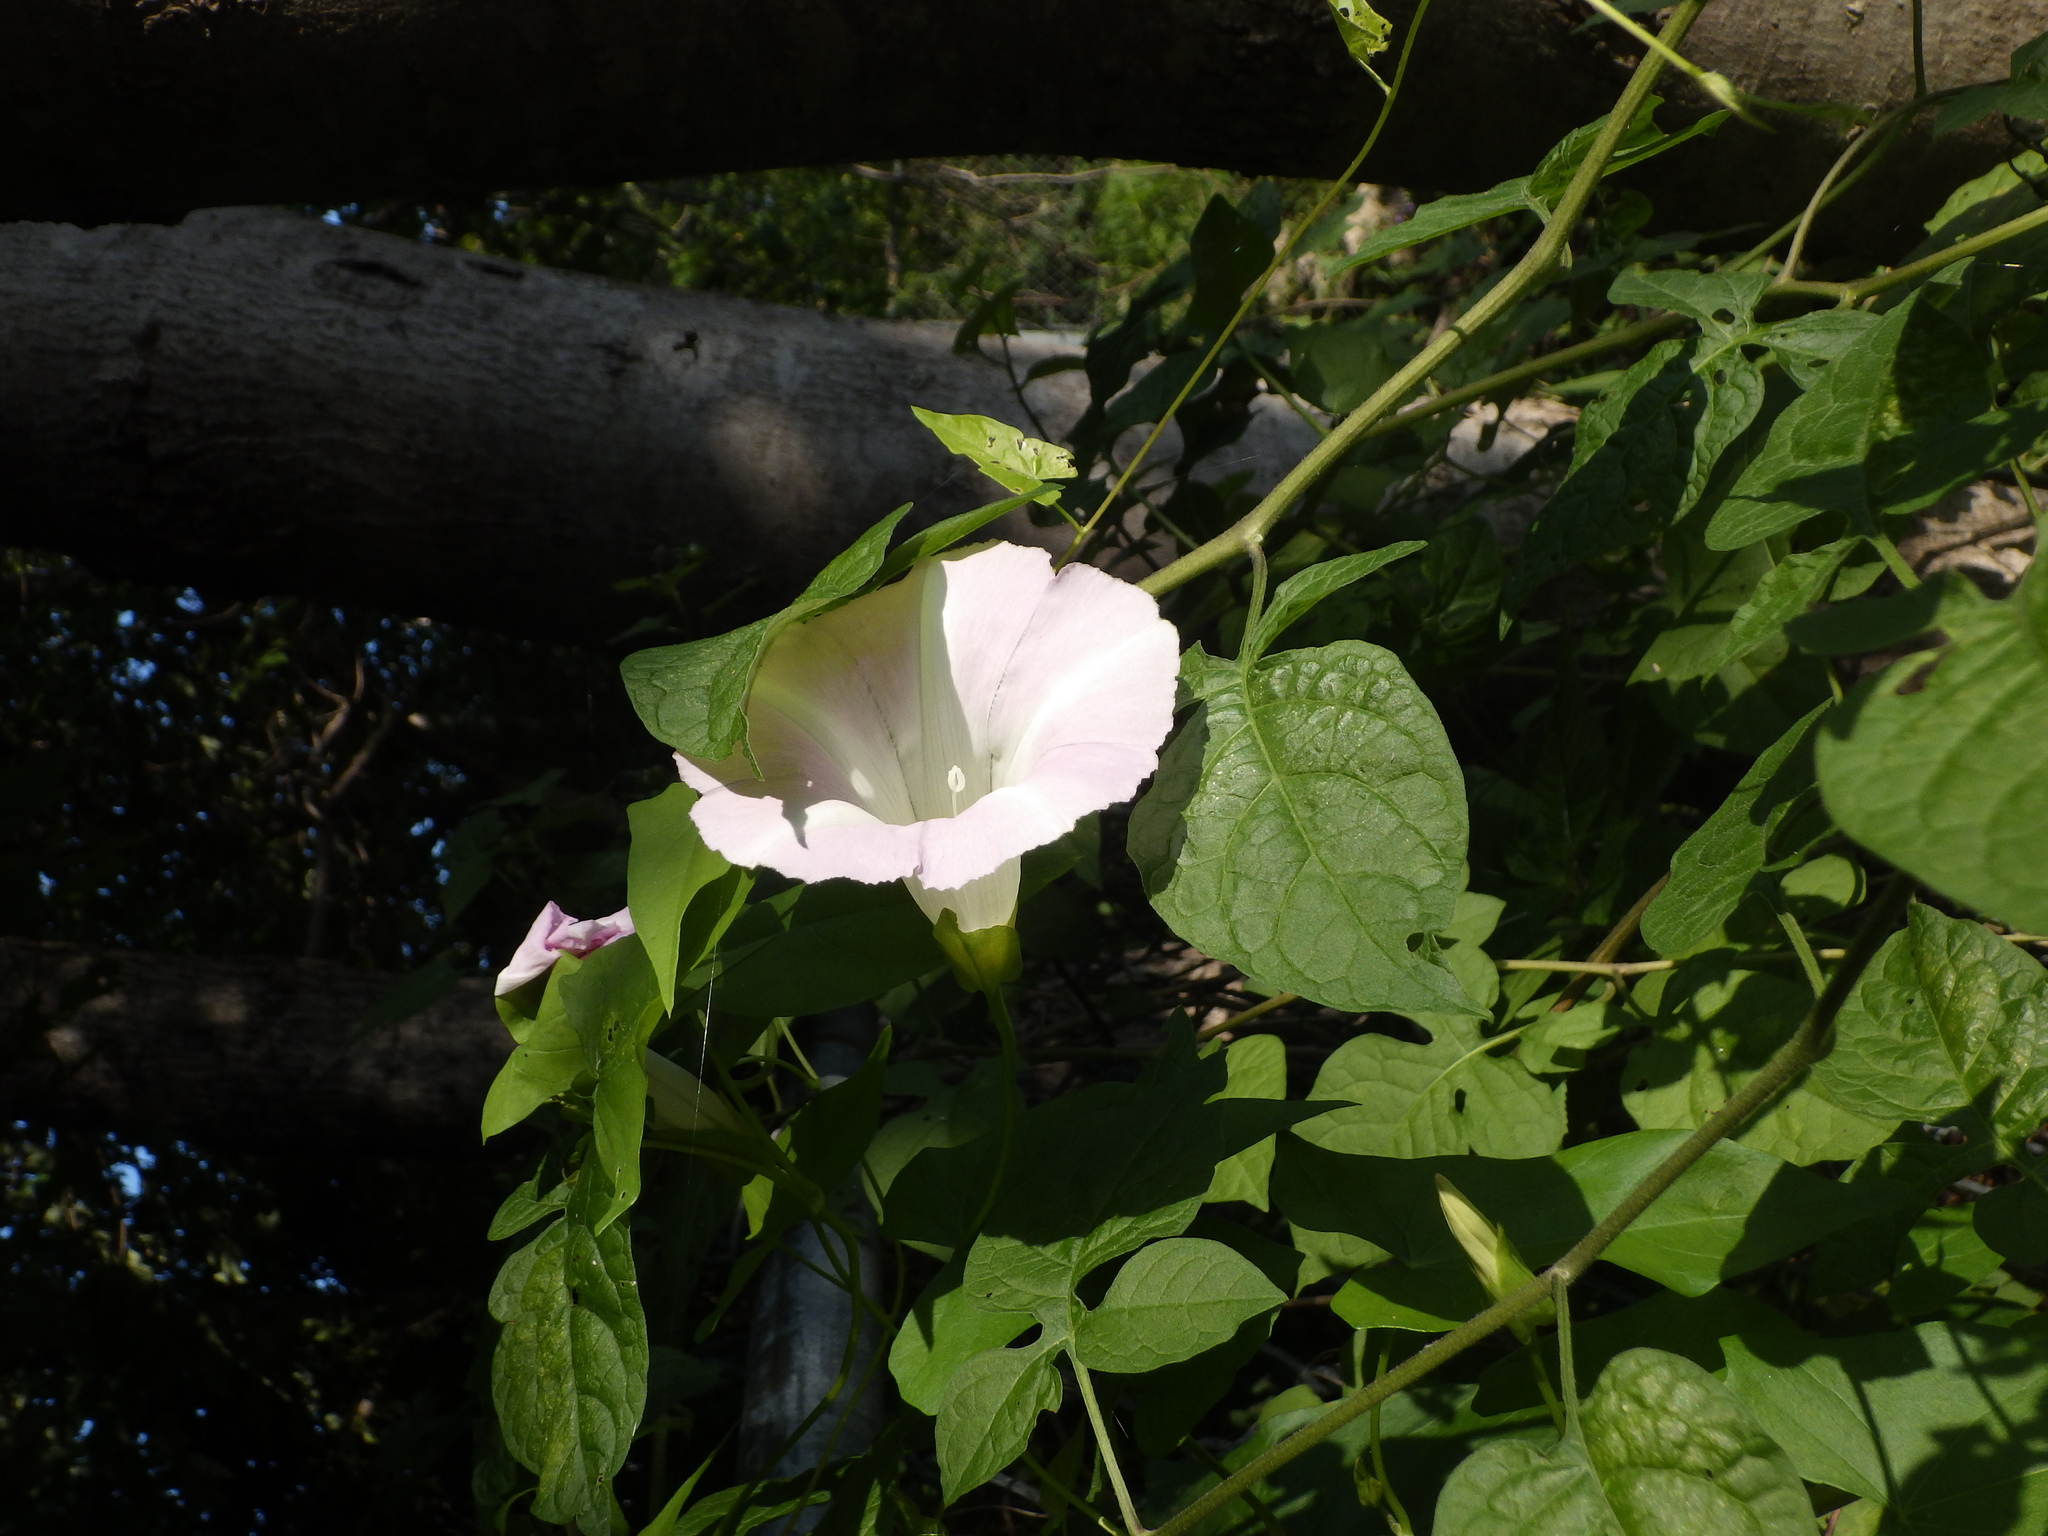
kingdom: Plantae
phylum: Tracheophyta
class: Magnoliopsida
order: Solanales
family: Convolvulaceae
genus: Calystegia
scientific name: Calystegia sepium
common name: Hedge bindweed
